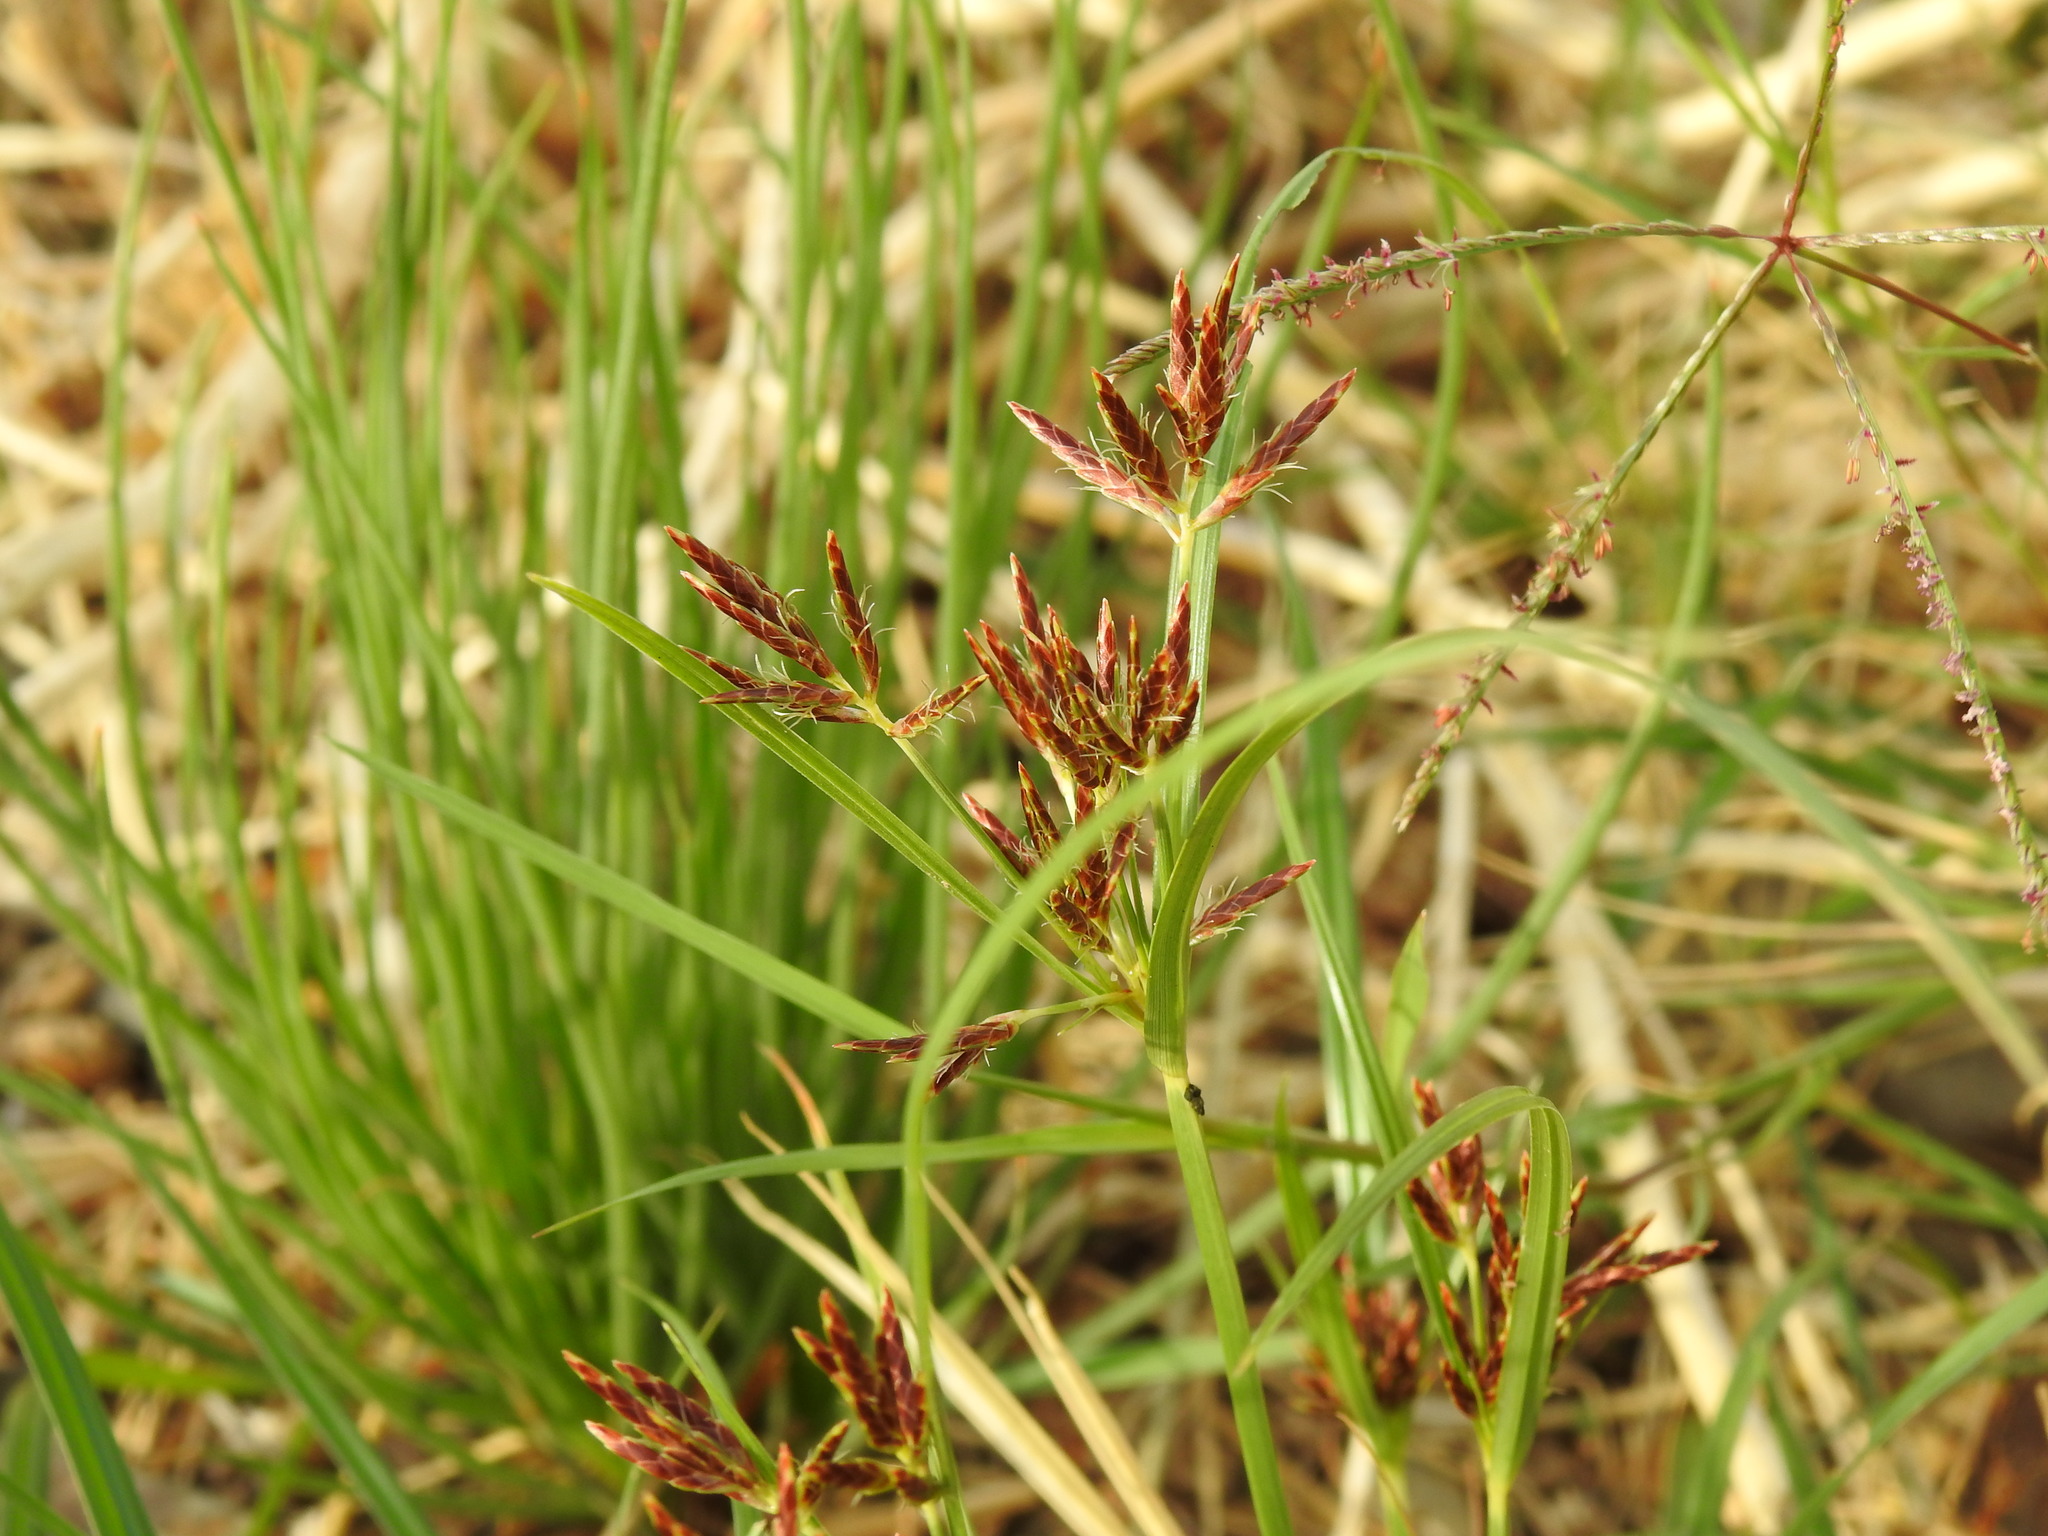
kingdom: Plantae
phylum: Tracheophyta
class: Liliopsida
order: Poales
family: Cyperaceae
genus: Cyperus
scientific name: Cyperus rotundus
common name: Nutgrass
